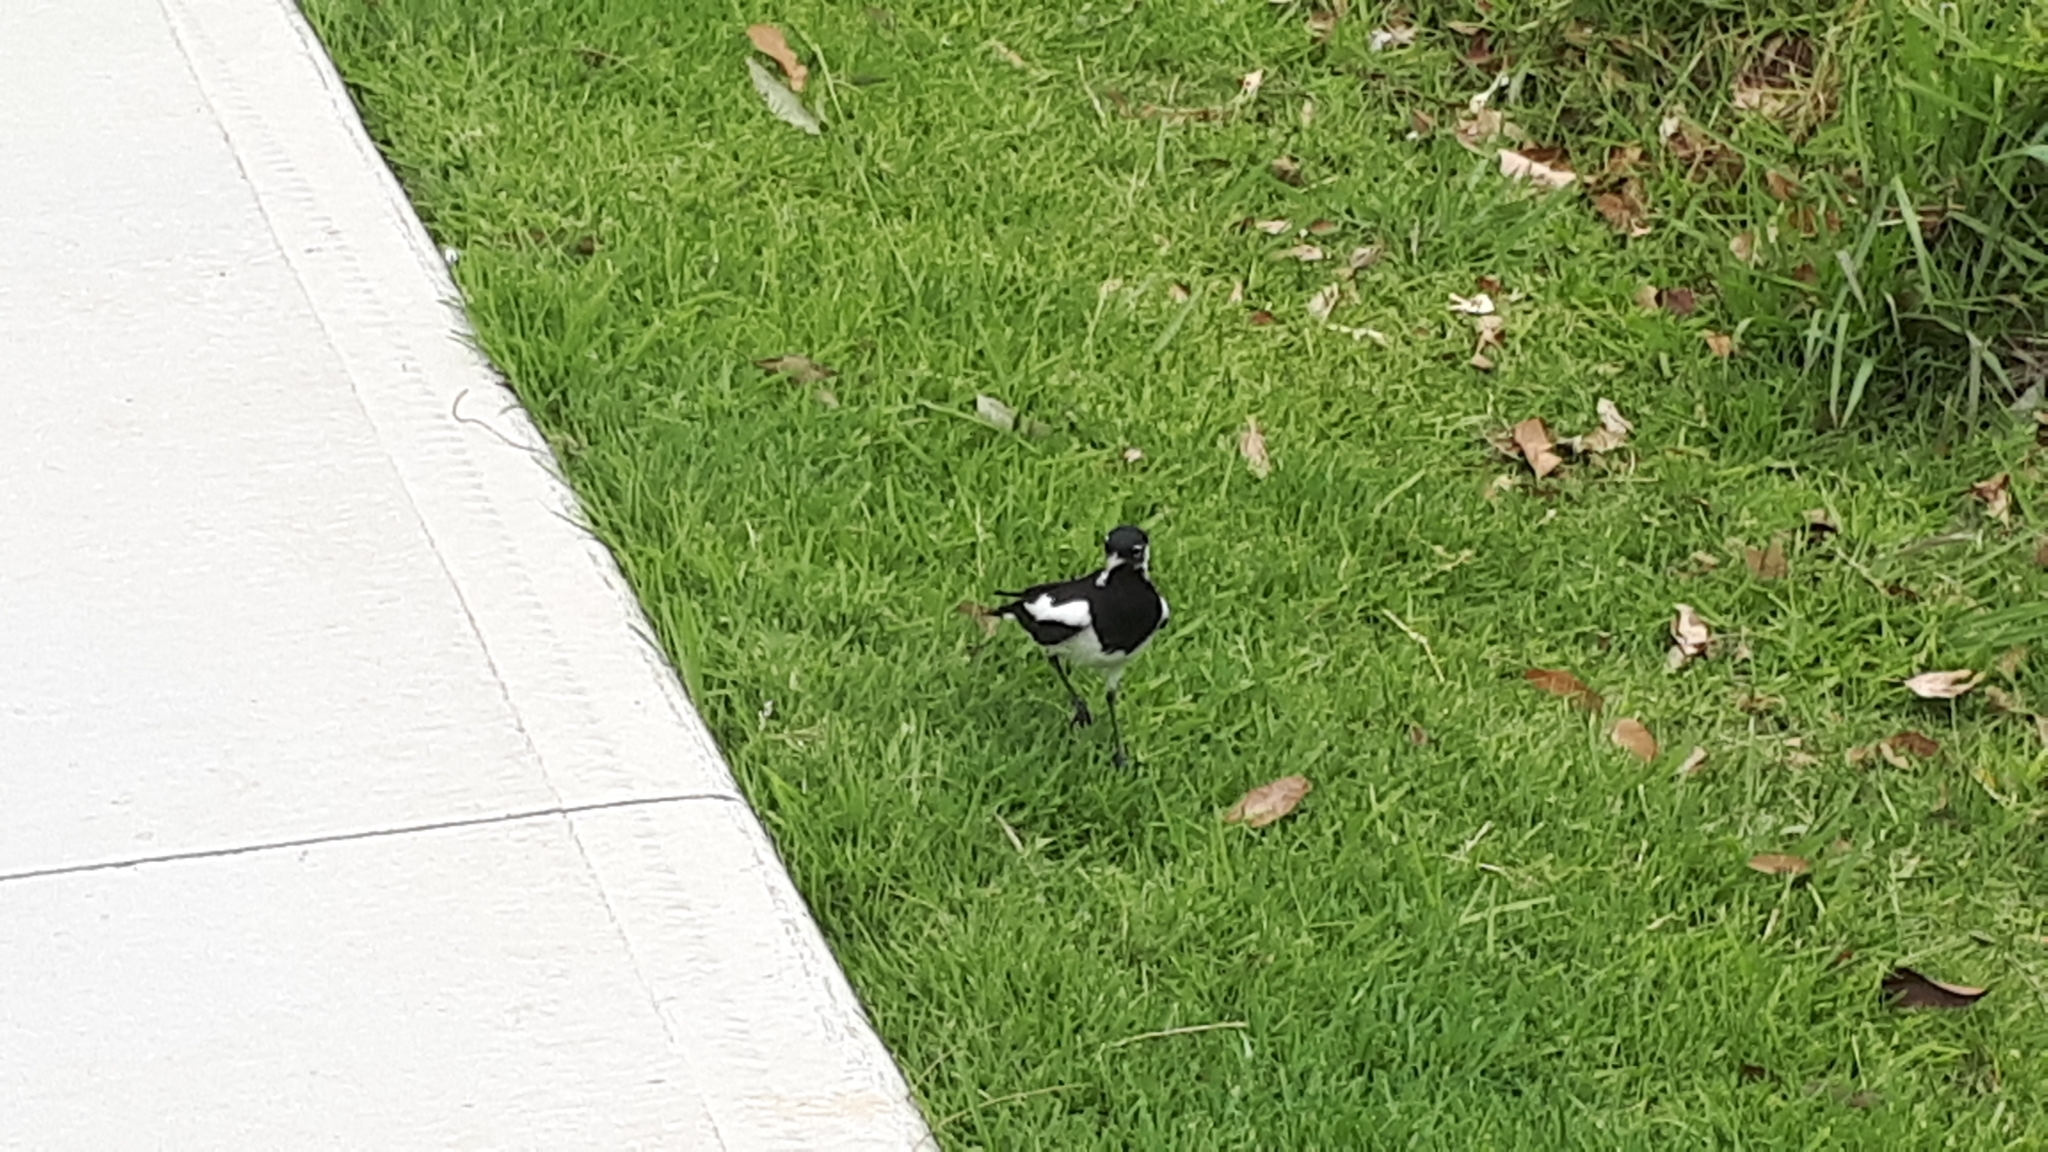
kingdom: Animalia
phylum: Chordata
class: Aves
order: Passeriformes
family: Monarchidae
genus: Grallina
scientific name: Grallina cyanoleuca
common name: Magpie-lark
